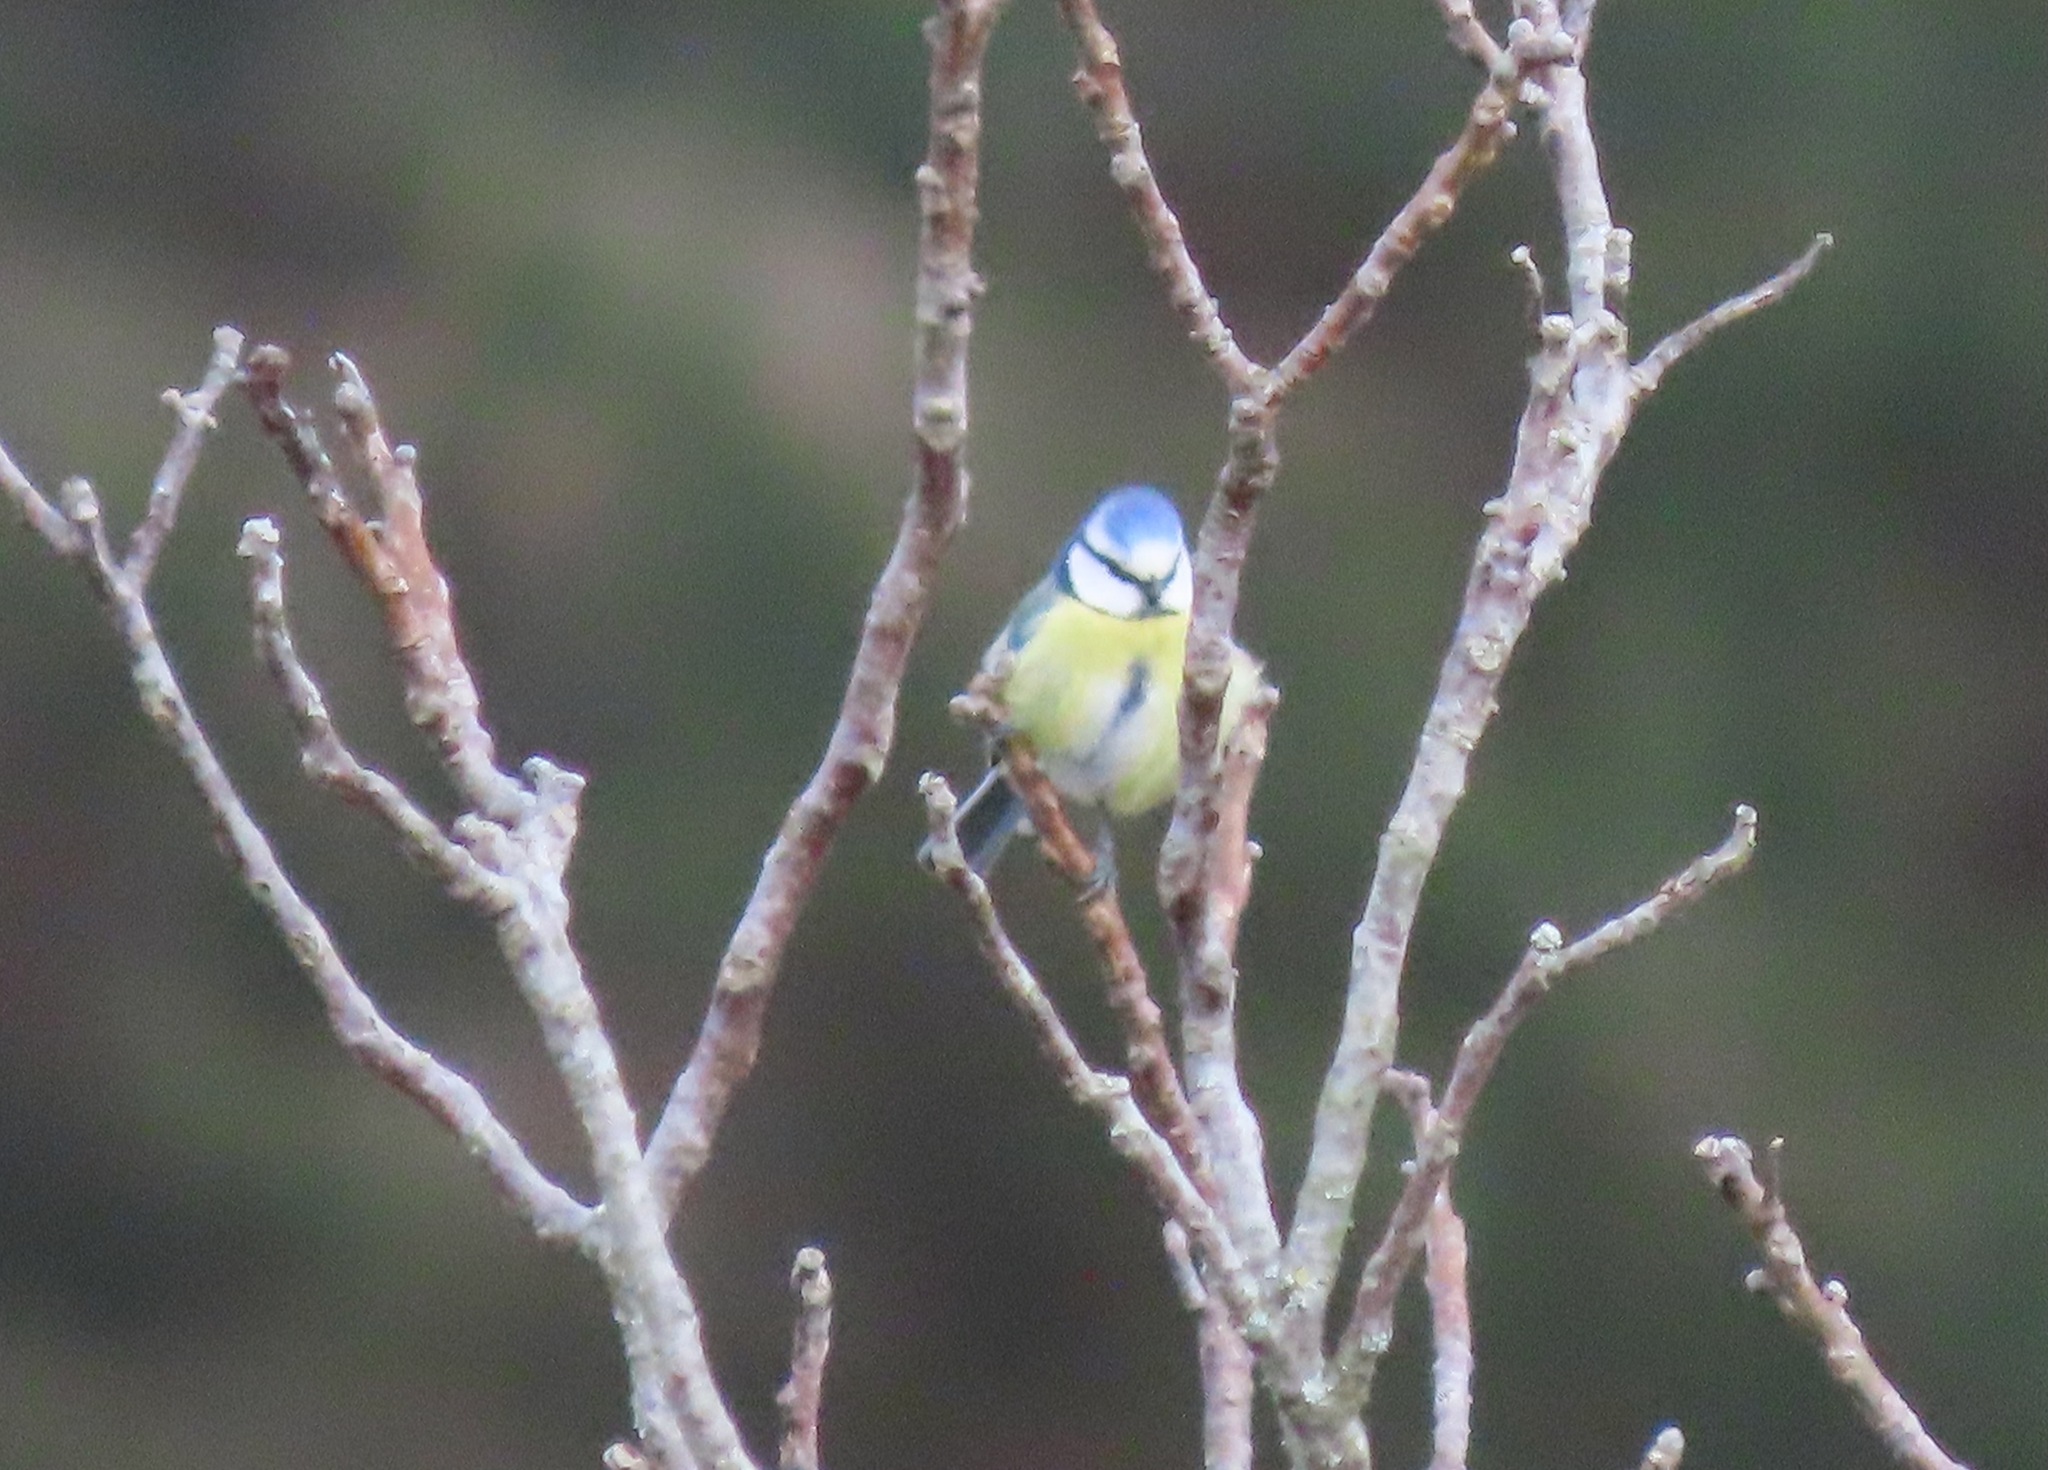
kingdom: Animalia
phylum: Chordata
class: Aves
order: Passeriformes
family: Paridae
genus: Cyanistes
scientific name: Cyanistes caeruleus
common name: Eurasian blue tit
